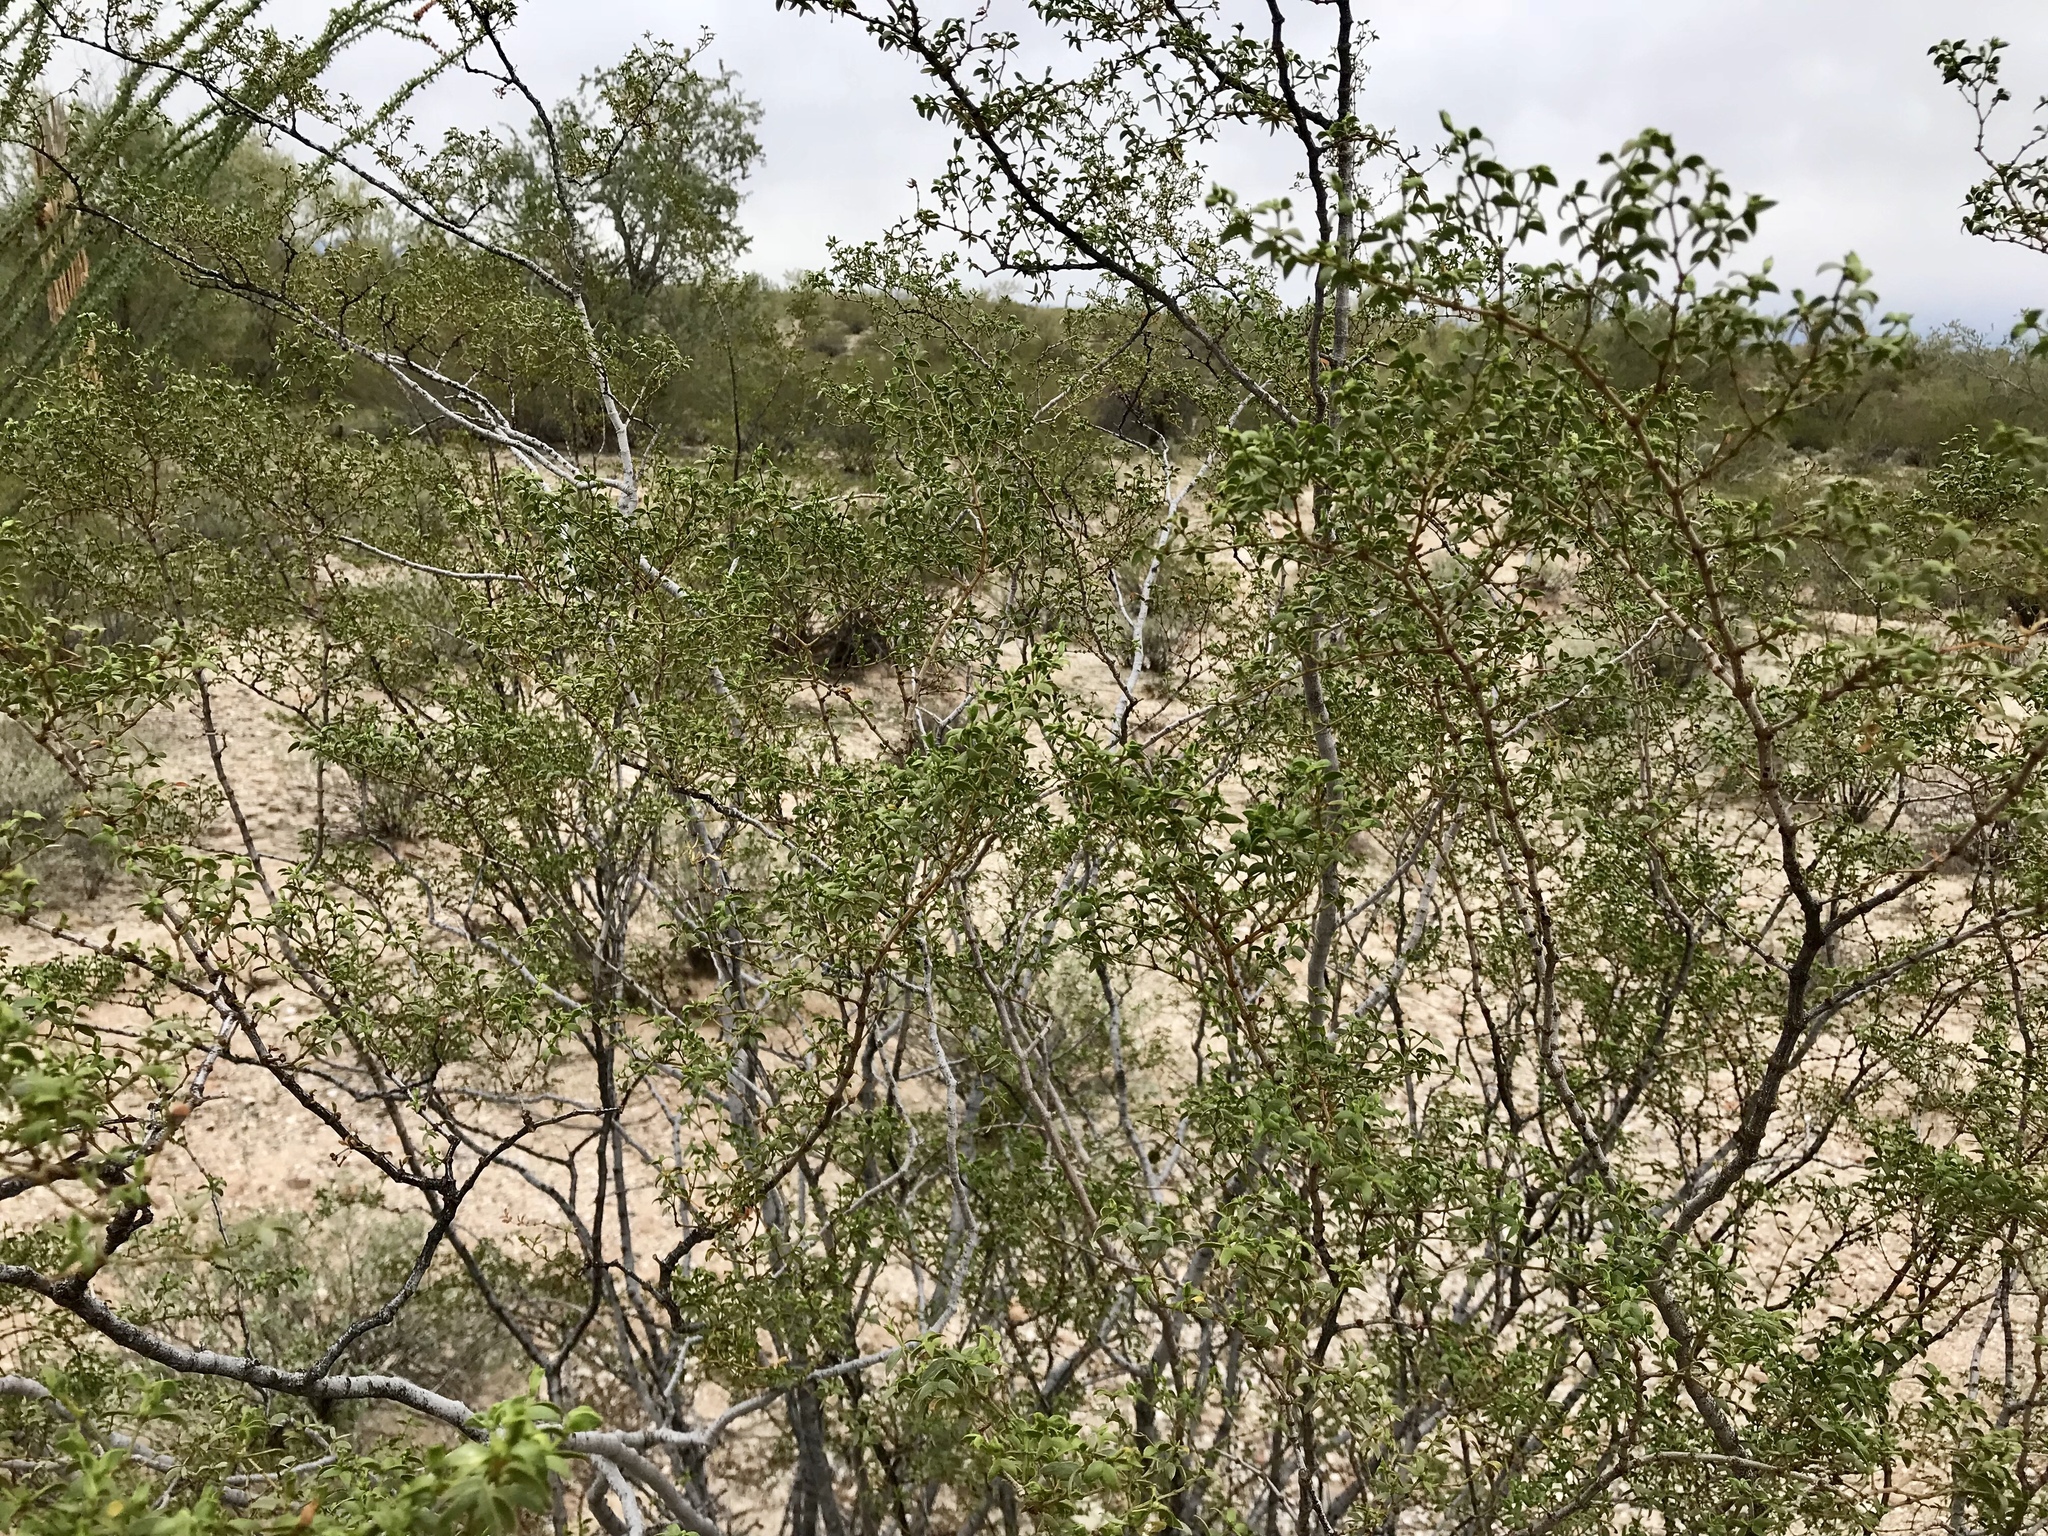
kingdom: Plantae
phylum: Tracheophyta
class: Magnoliopsida
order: Zygophyllales
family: Zygophyllaceae
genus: Larrea
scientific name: Larrea tridentata
